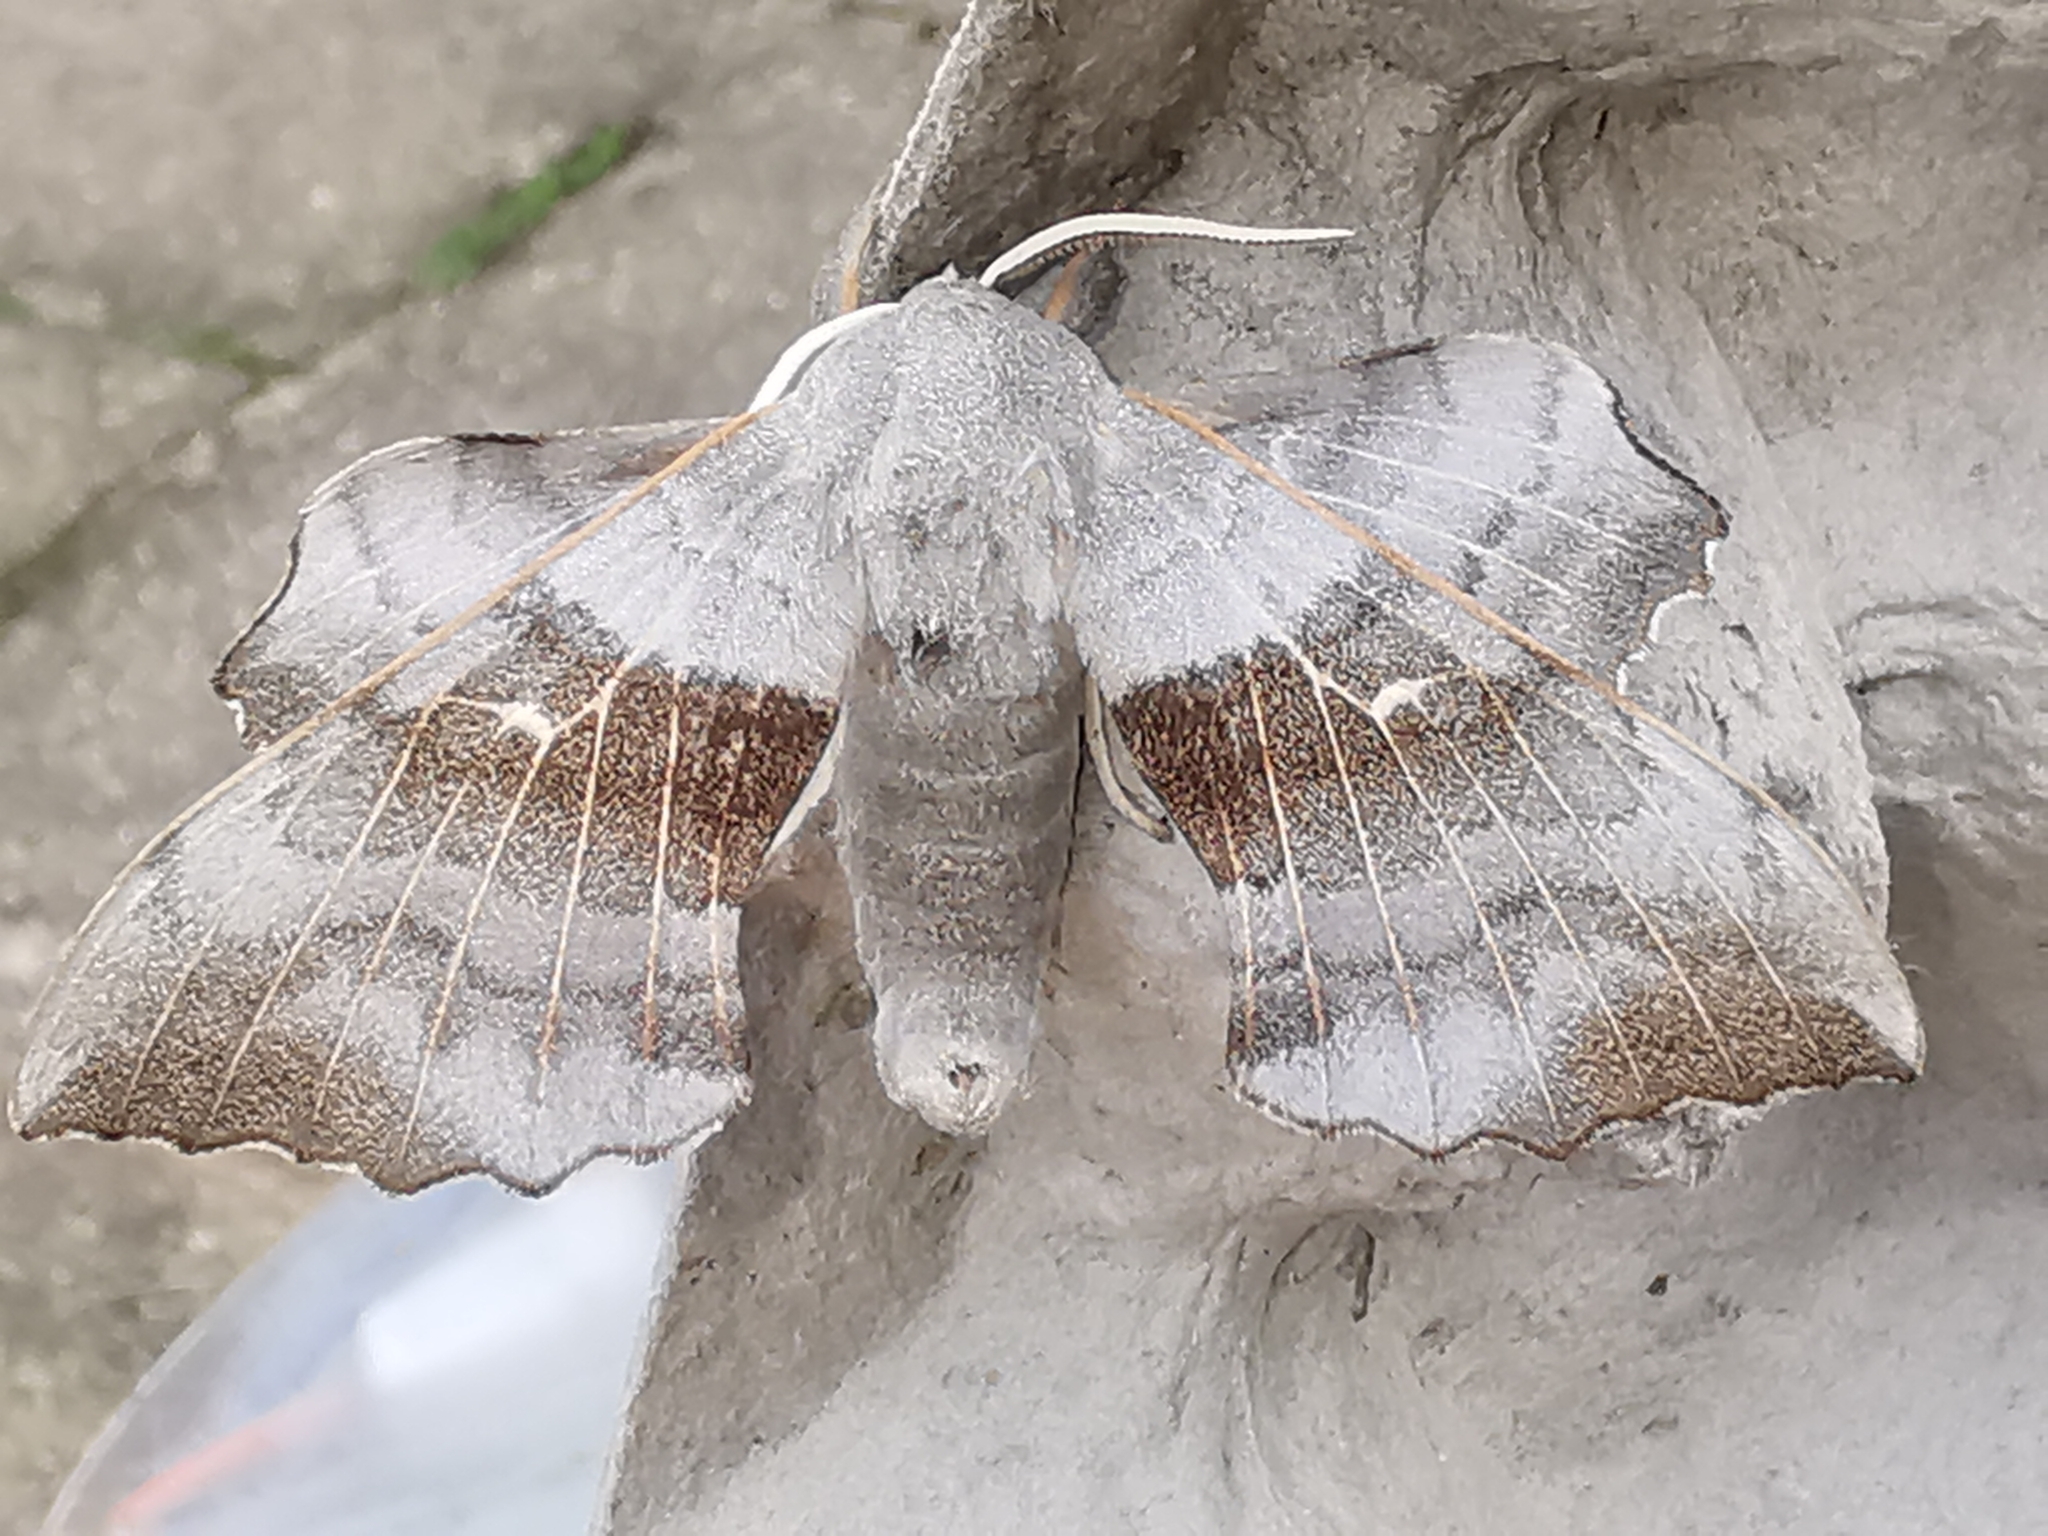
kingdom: Animalia
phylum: Arthropoda
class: Insecta
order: Lepidoptera
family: Sphingidae
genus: Laothoe
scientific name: Laothoe populi
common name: Poplar hawk-moth
